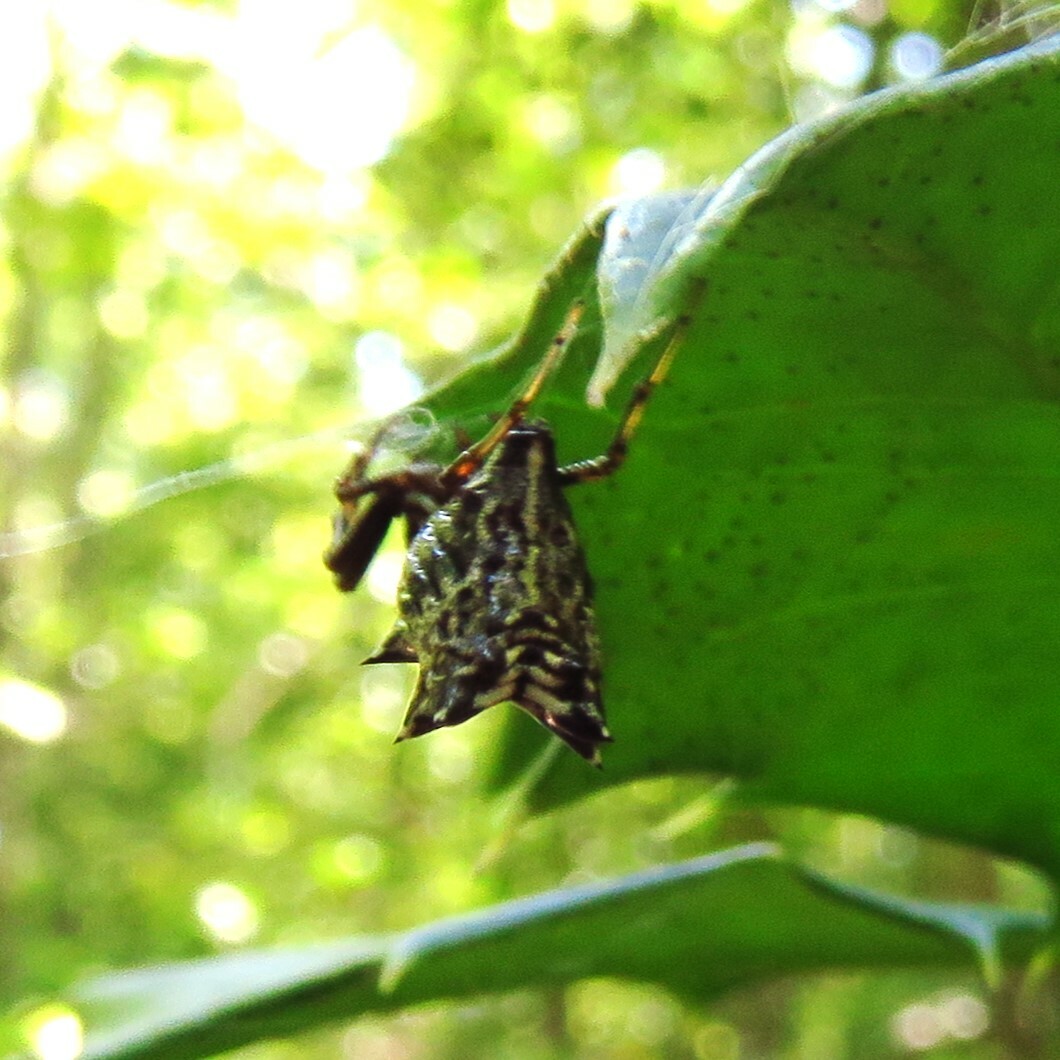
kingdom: Animalia
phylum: Arthropoda
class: Arachnida
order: Araneae
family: Araneidae
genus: Micrathena
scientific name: Micrathena gracilis
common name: Orb weavers
